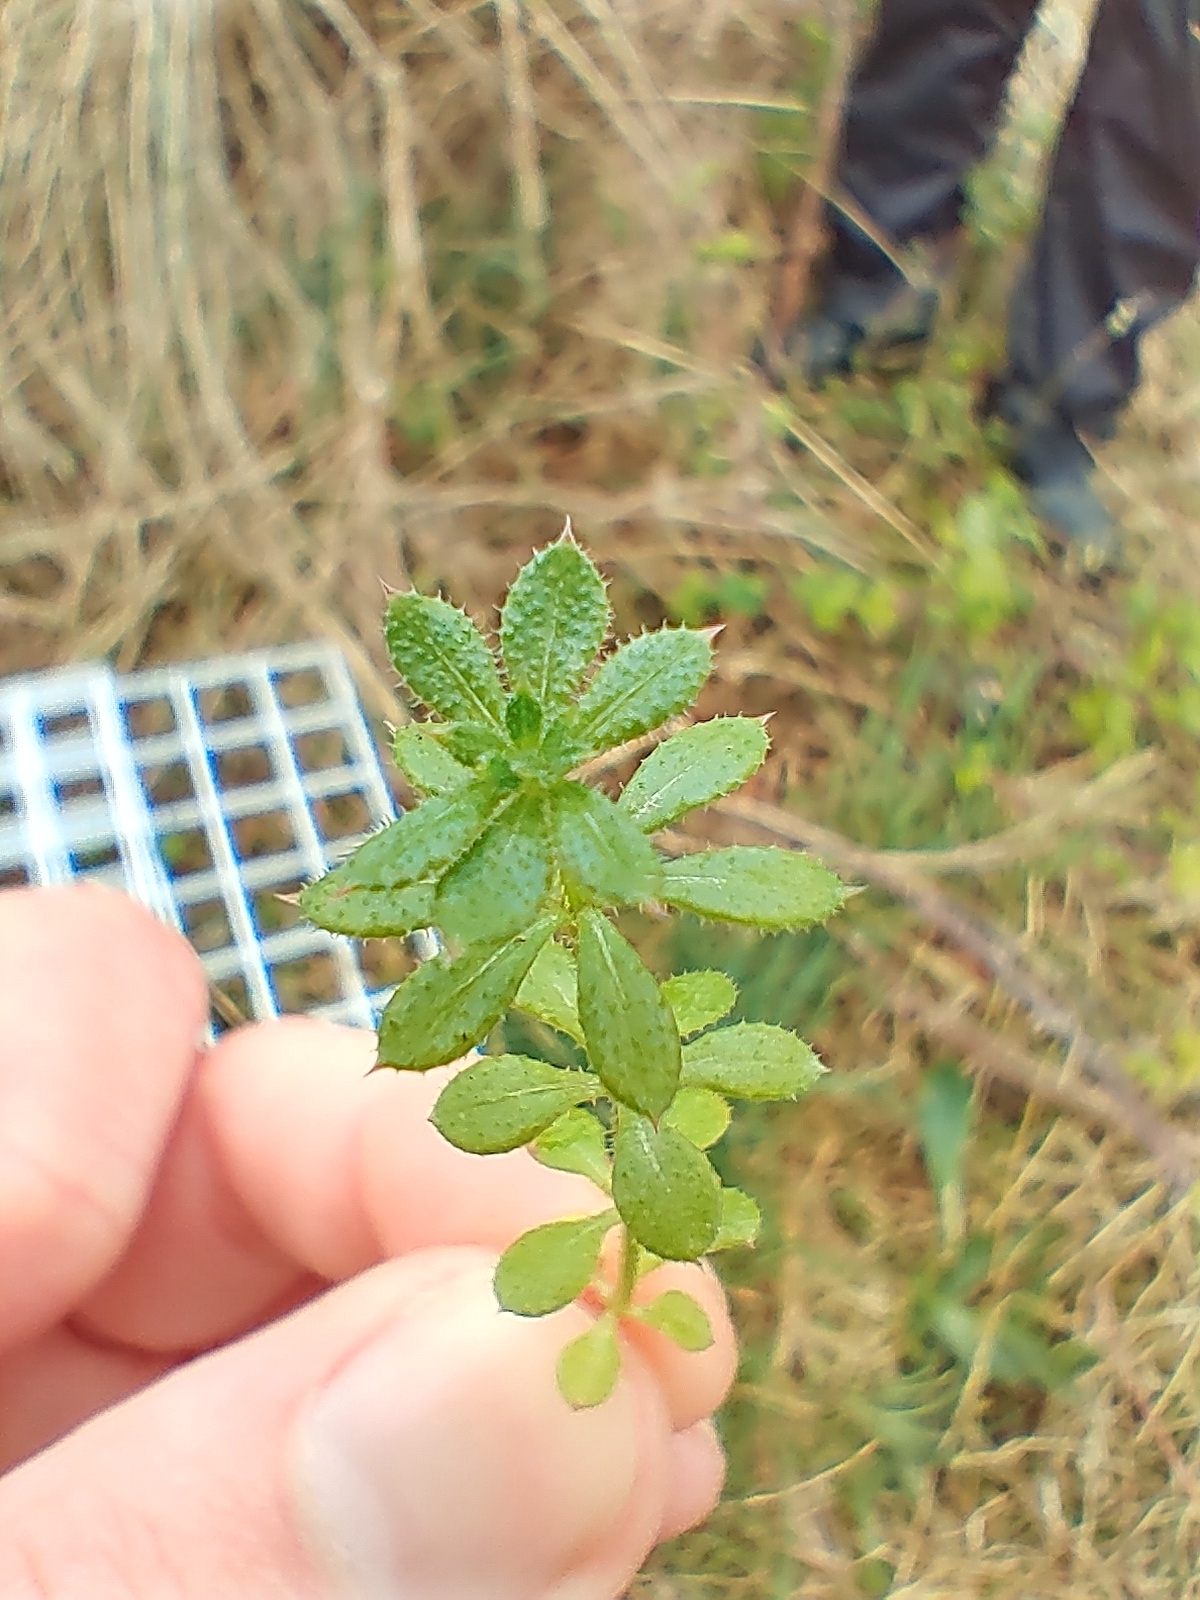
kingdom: Plantae
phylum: Tracheophyta
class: Magnoliopsida
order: Gentianales
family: Rubiaceae
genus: Galium
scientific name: Galium aparine
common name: Cleavers
